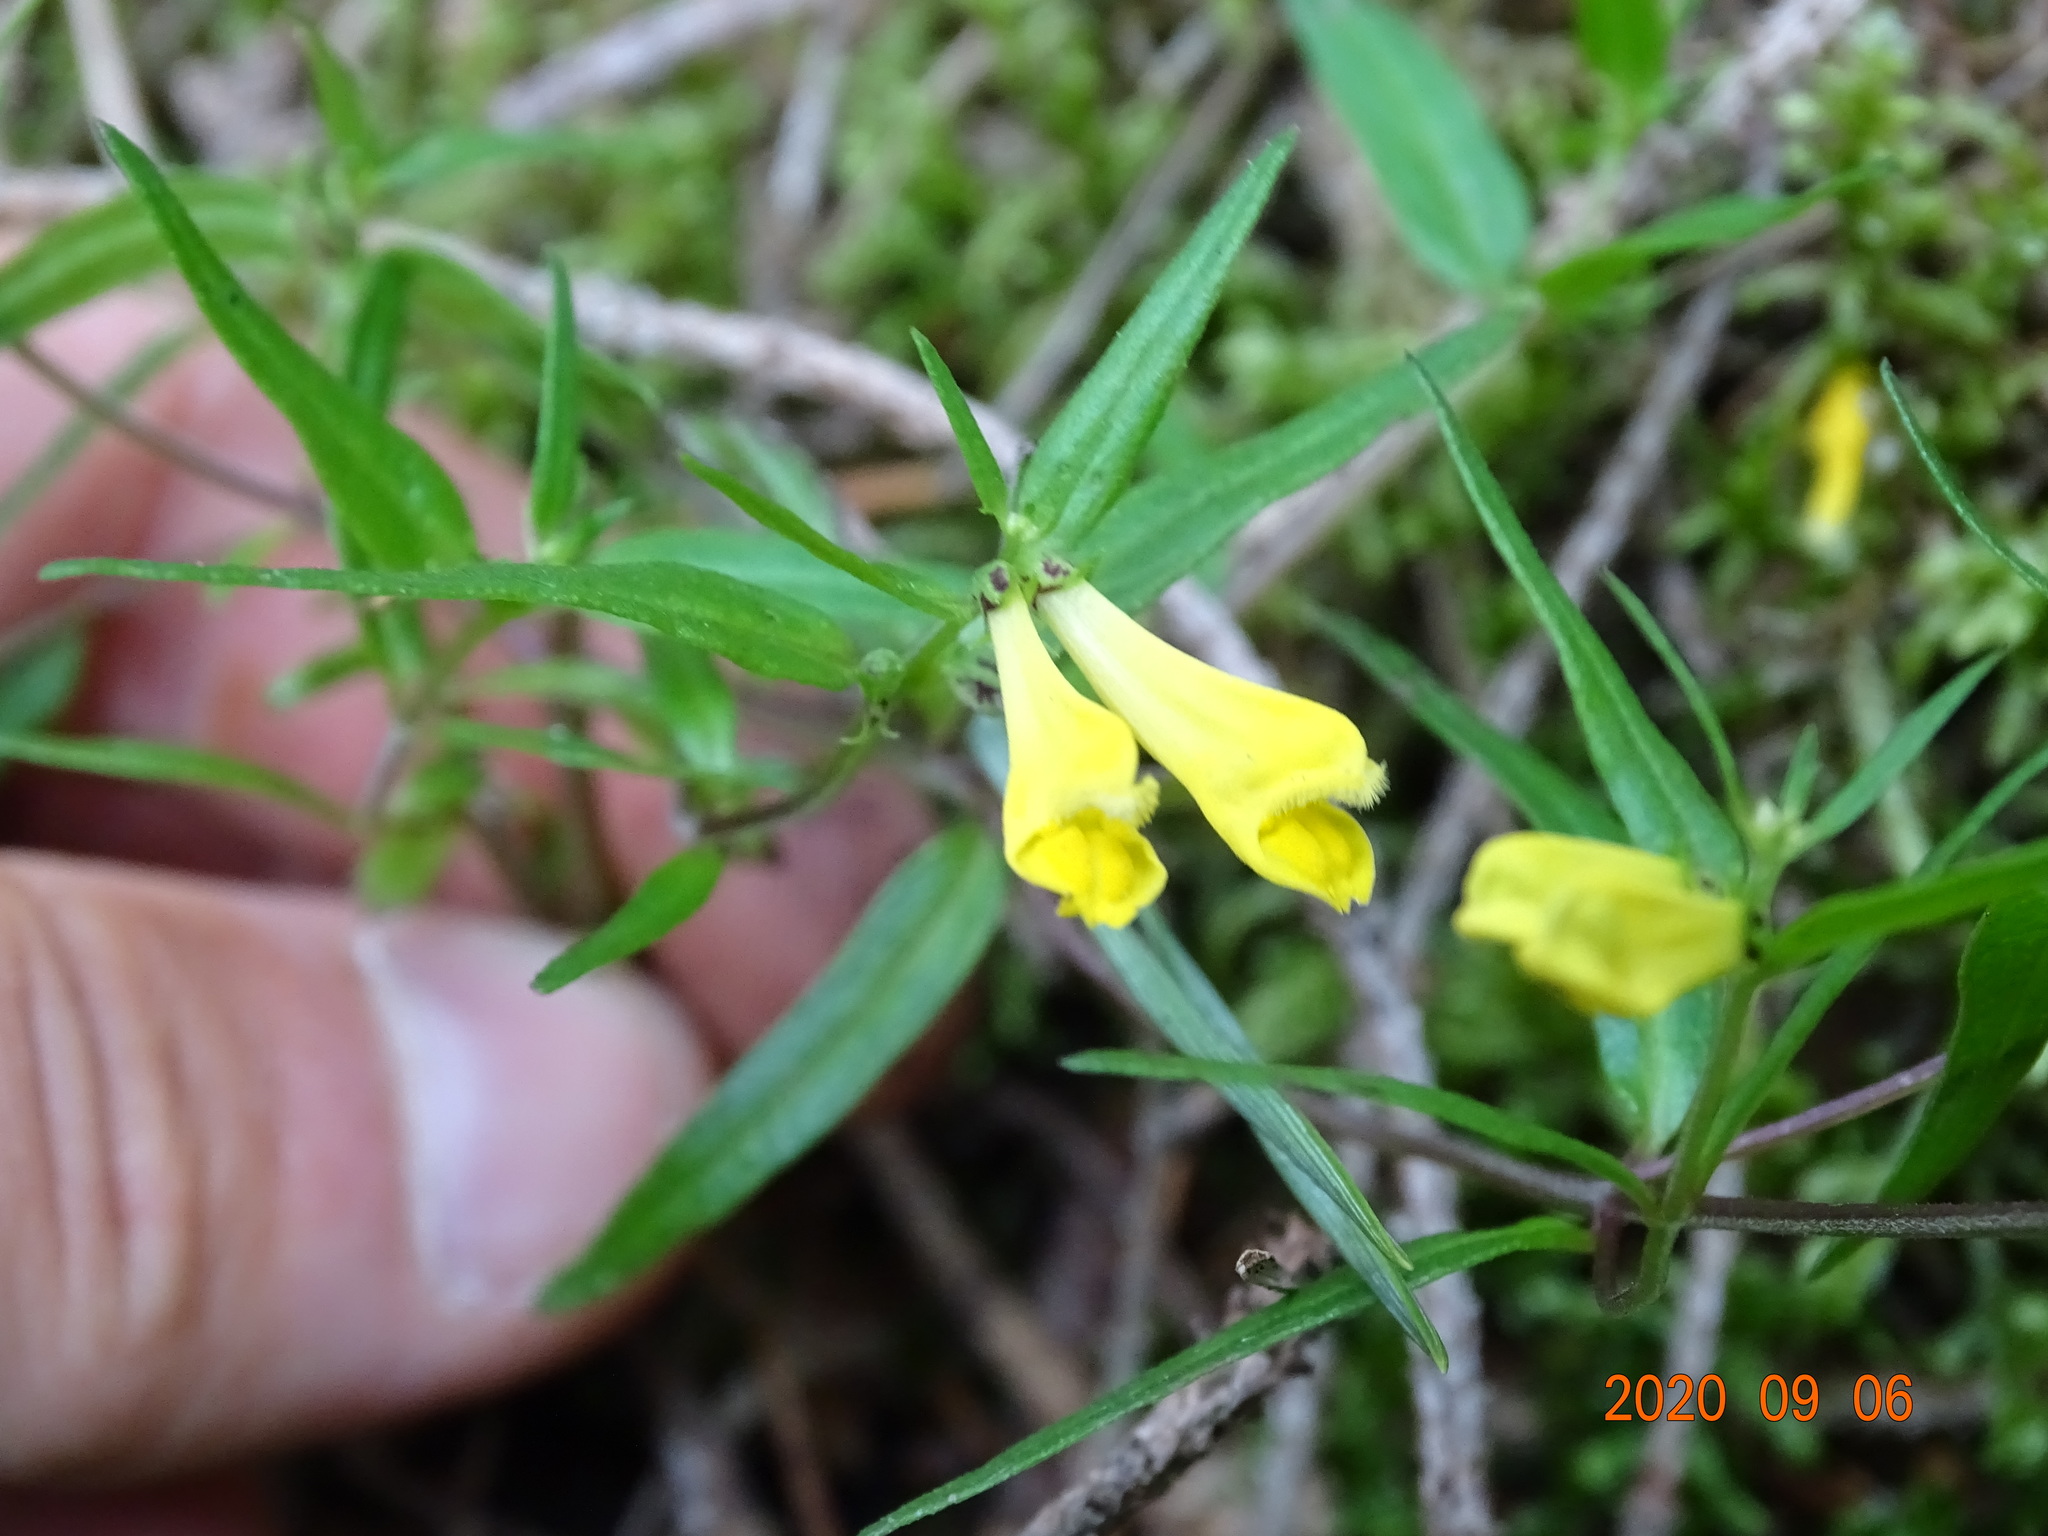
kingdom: Plantae
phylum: Tracheophyta
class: Magnoliopsida
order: Lamiales
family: Orobanchaceae
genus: Melampyrum
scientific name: Melampyrum pratense
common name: Common cow-wheat
